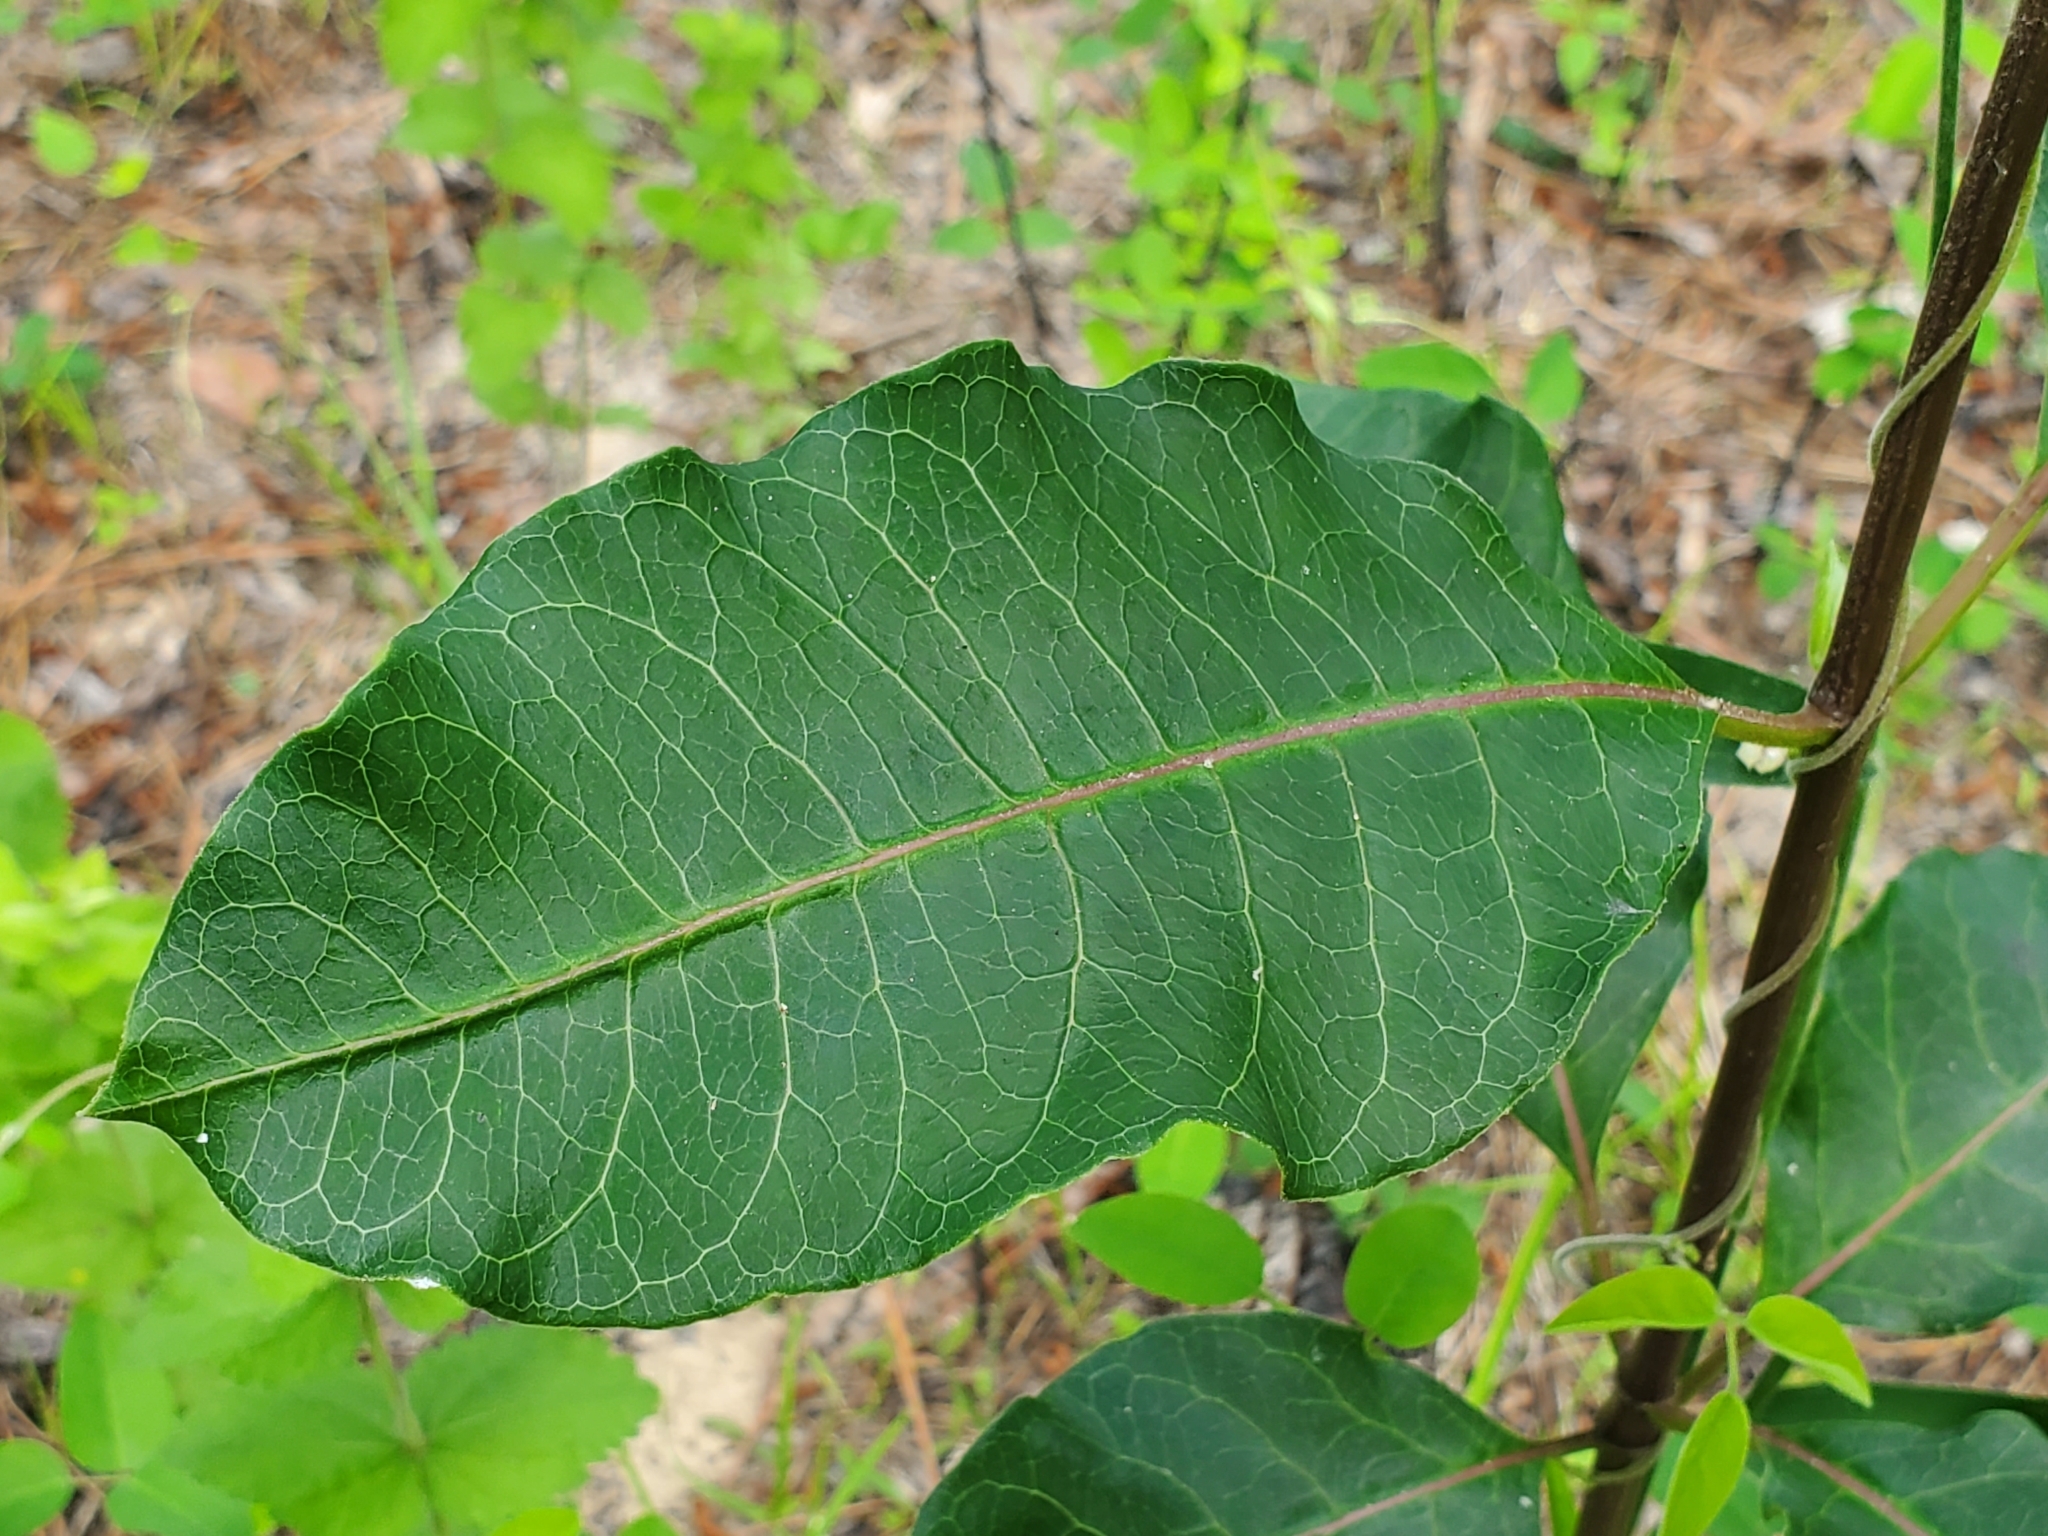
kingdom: Plantae
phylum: Tracheophyta
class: Magnoliopsida
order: Gentianales
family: Apocynaceae
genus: Asclepias
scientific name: Asclepias variegata
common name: Variegated milkweed
